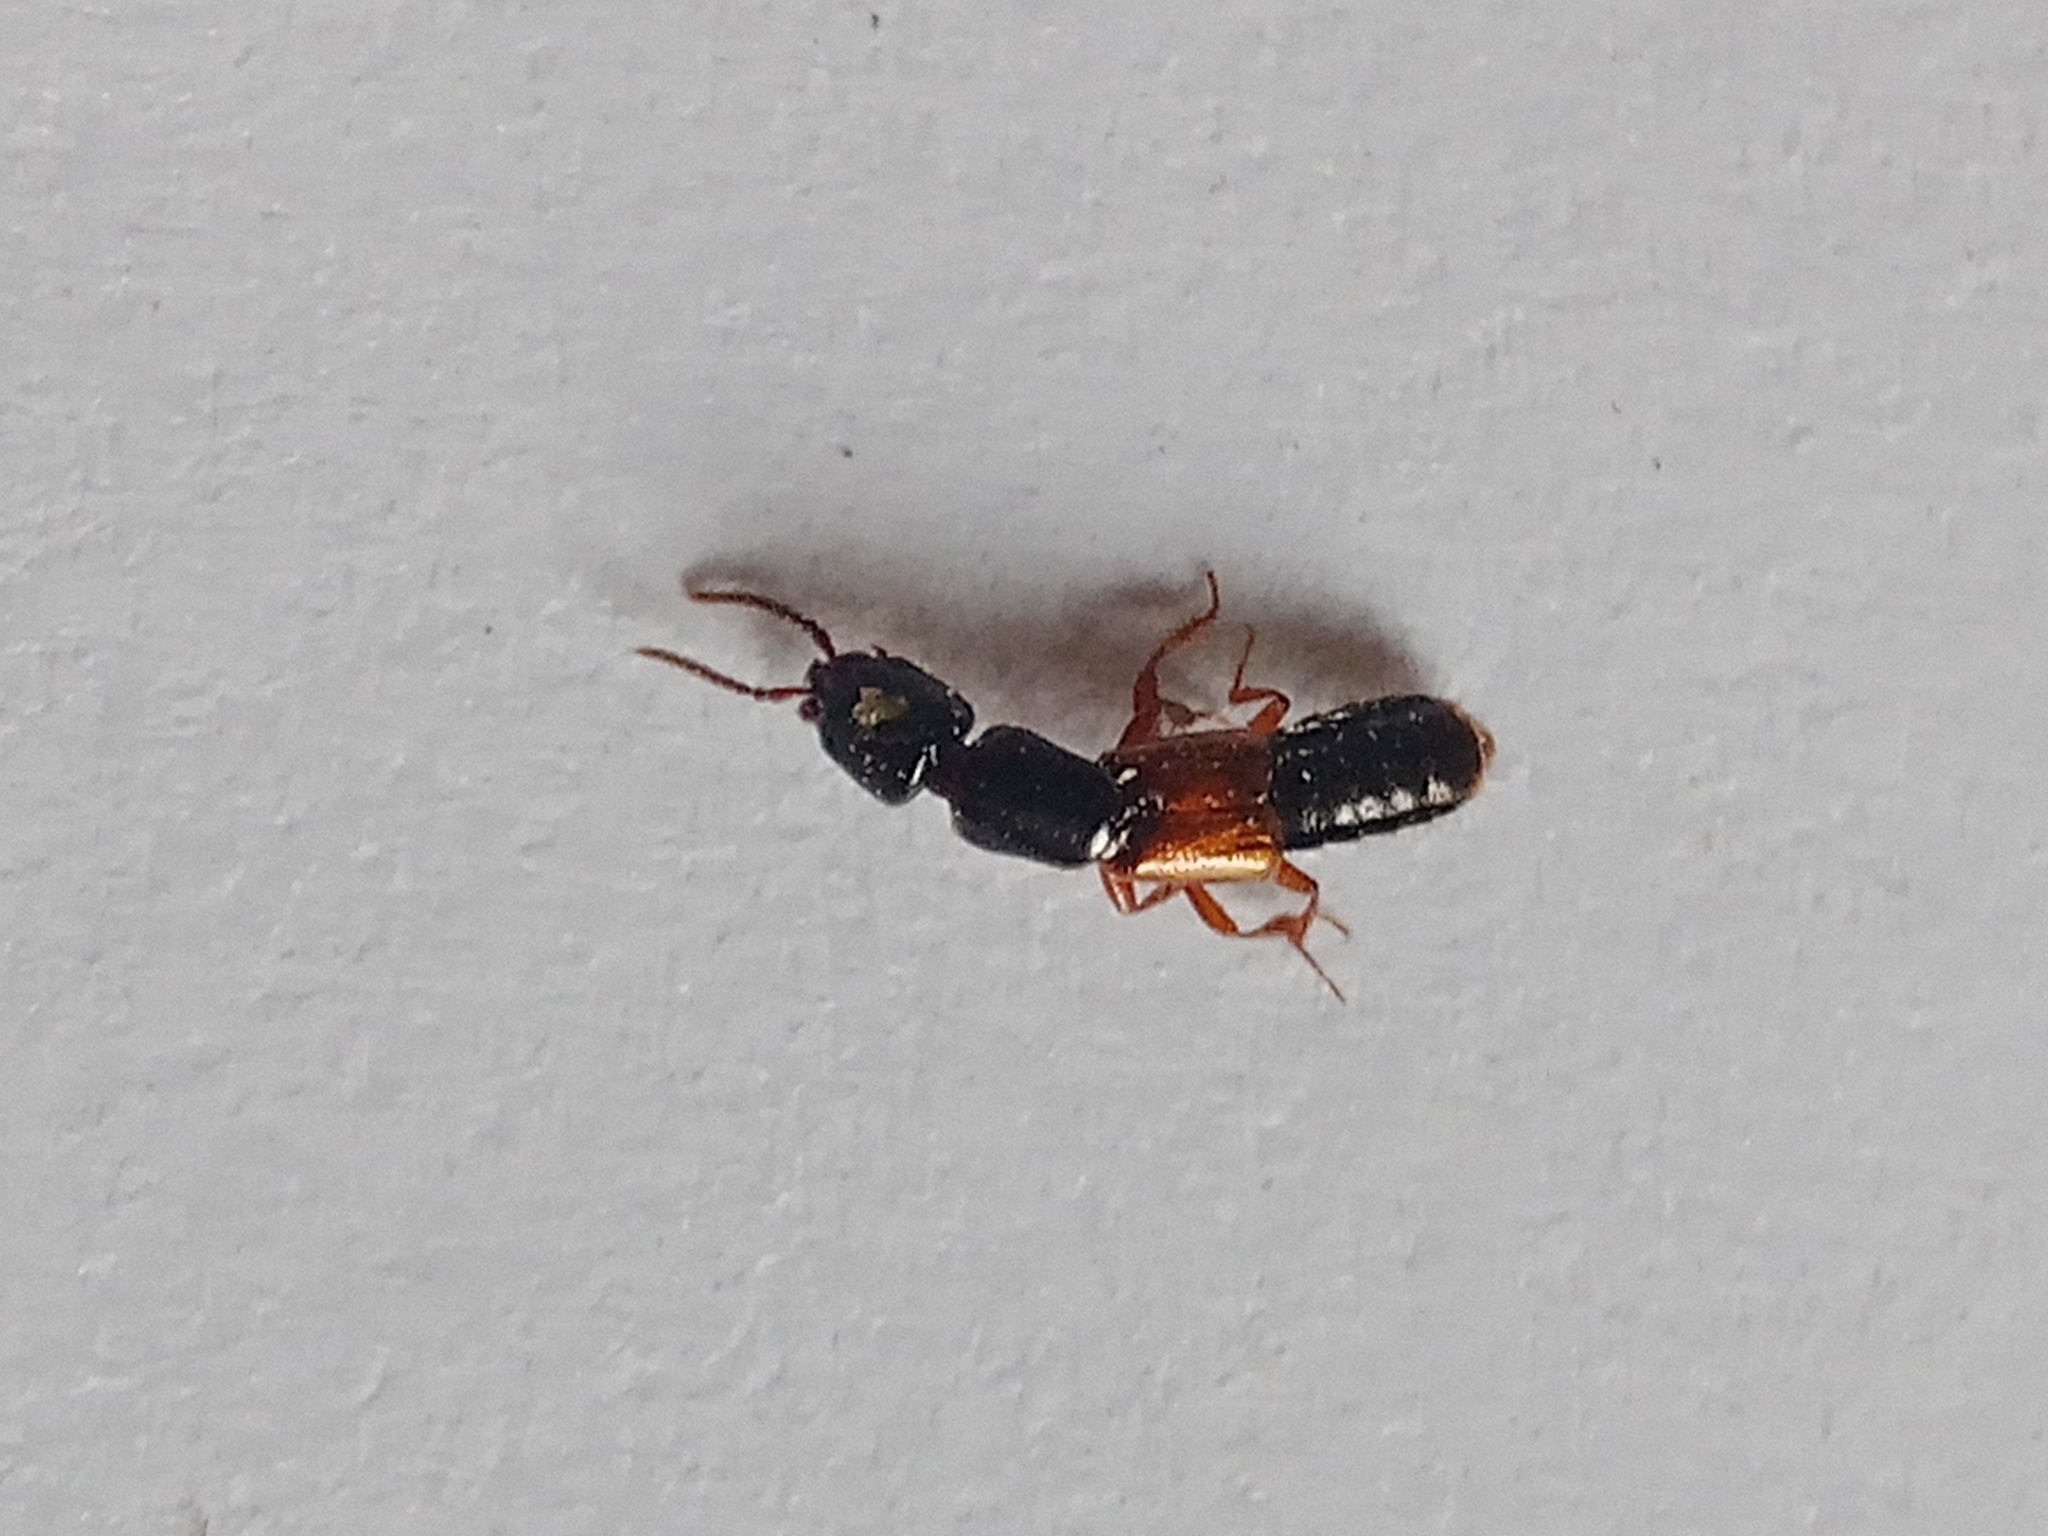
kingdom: Animalia
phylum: Arthropoda
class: Insecta
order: Coleoptera
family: Staphylinidae
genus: Nudobius
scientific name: Nudobius lentus
